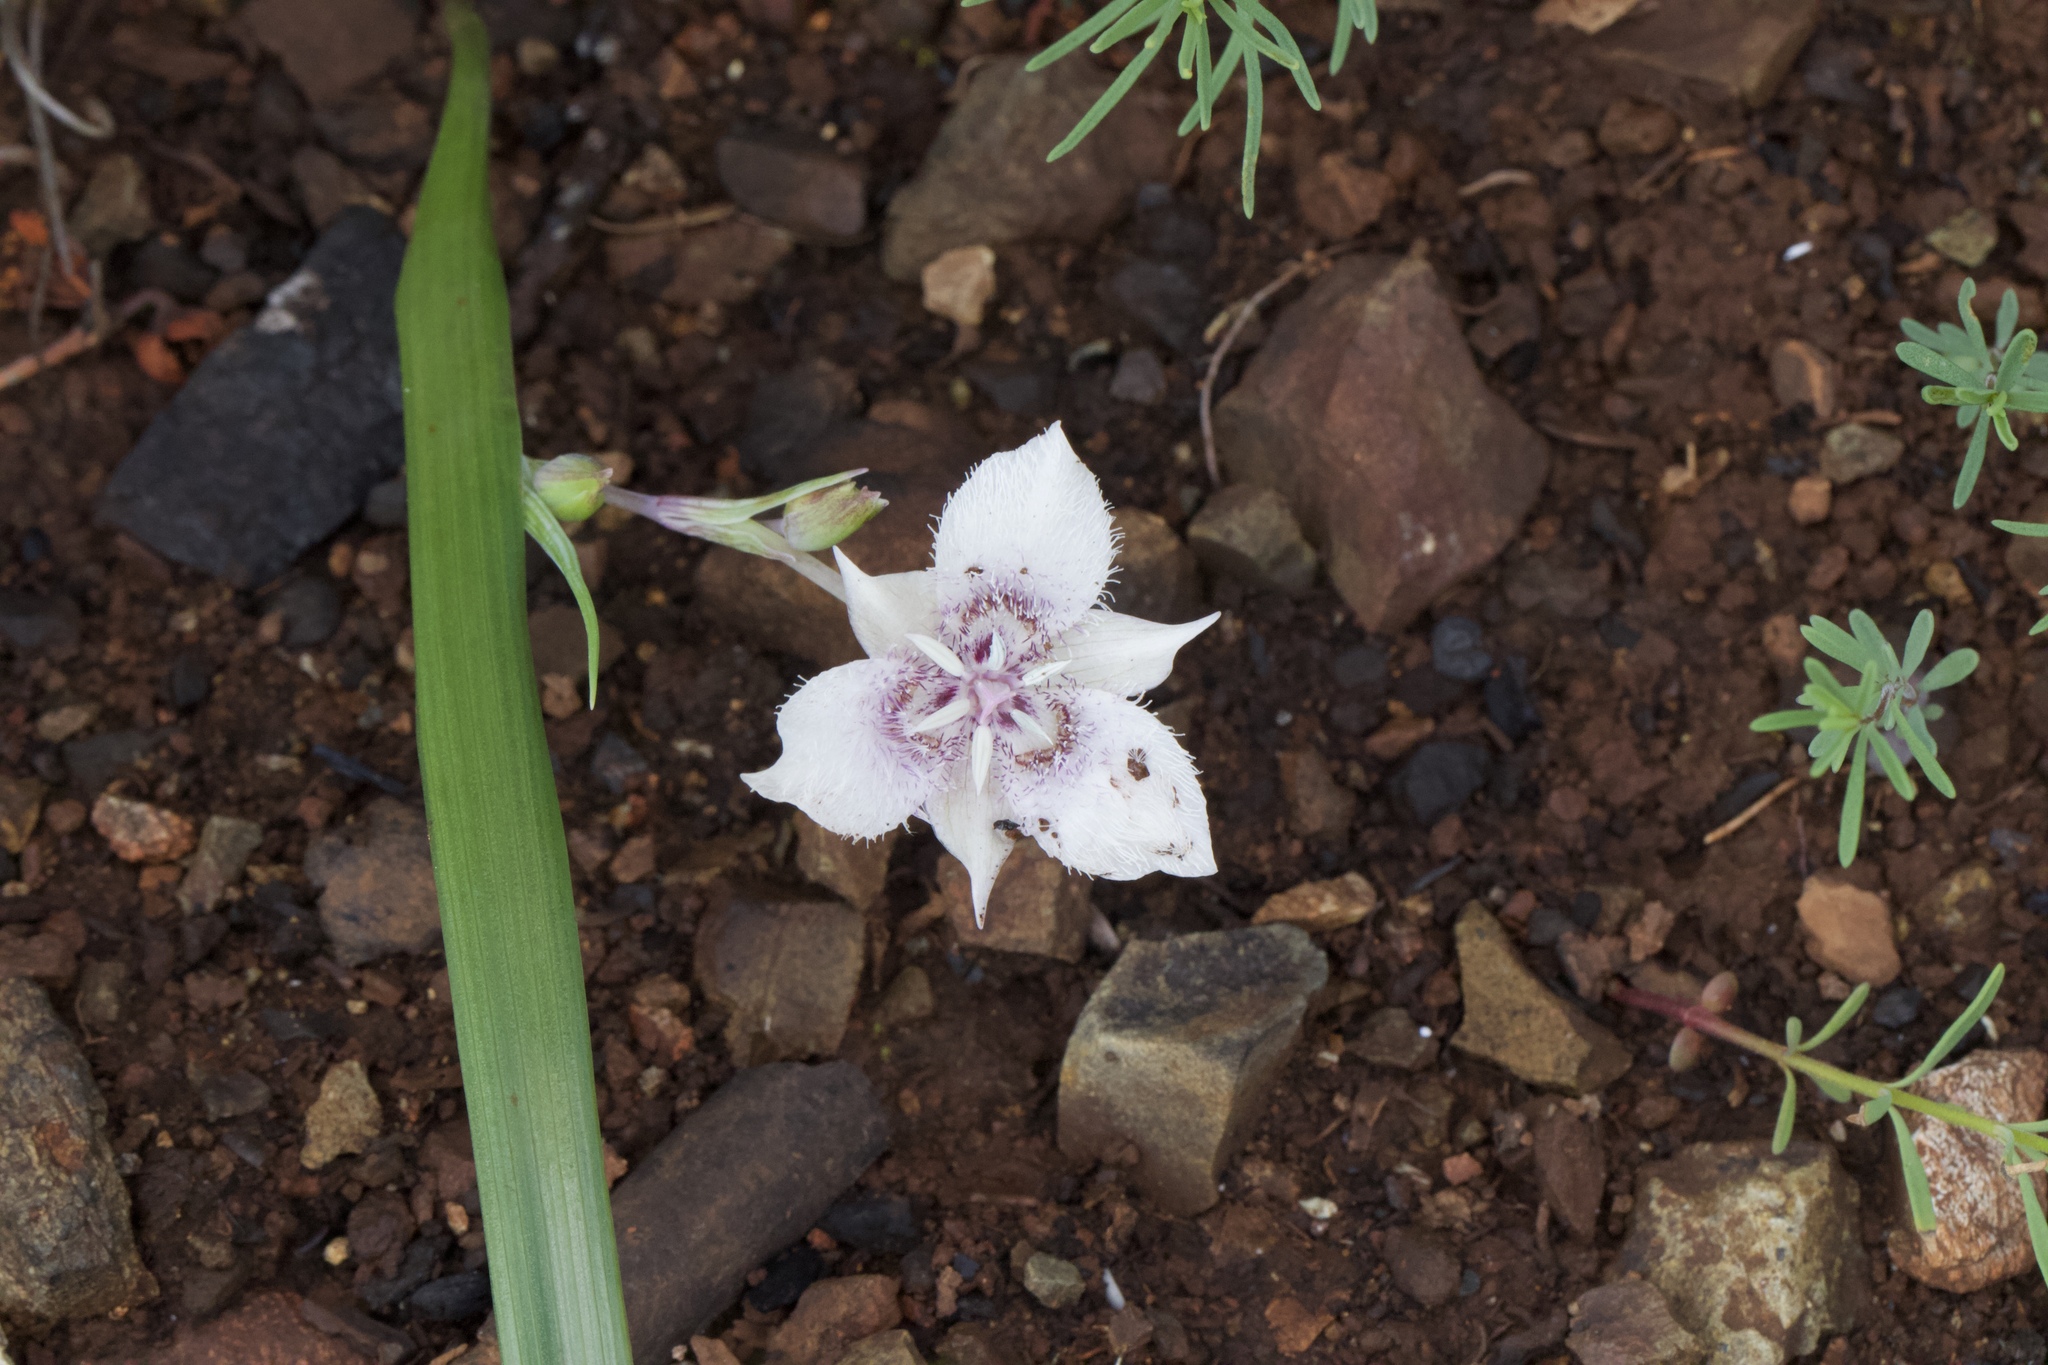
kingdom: Plantae
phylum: Tracheophyta
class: Liliopsida
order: Liliales
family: Liliaceae
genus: Calochortus
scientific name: Calochortus tolmiei
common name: Pussy-ears
